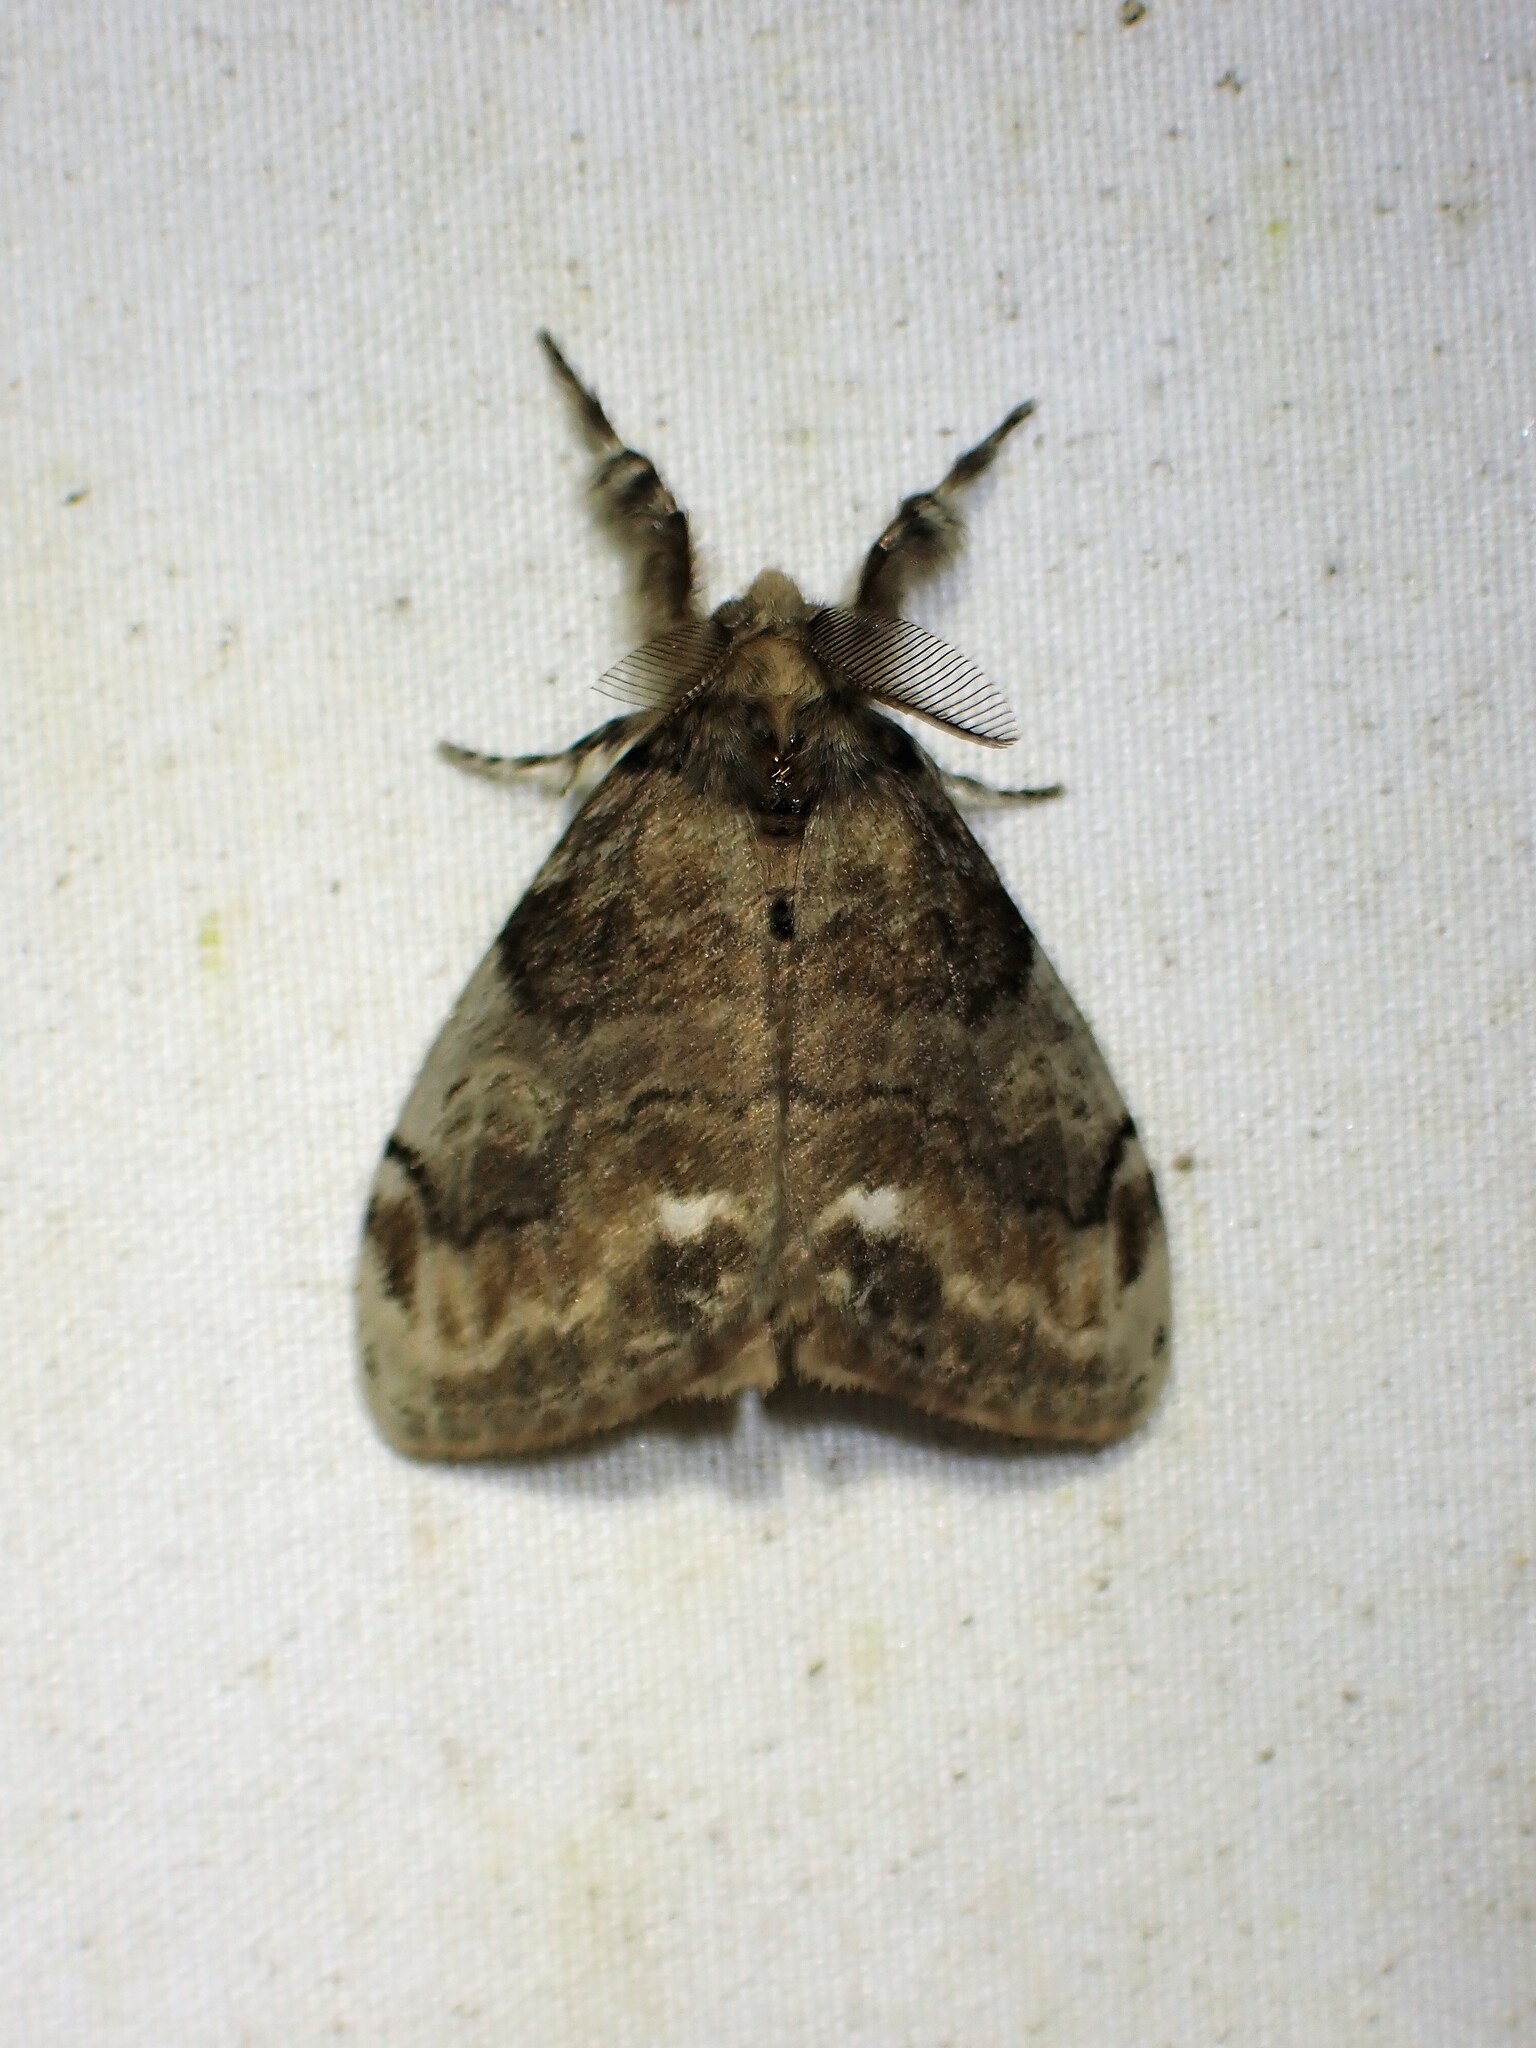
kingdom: Animalia
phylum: Arthropoda
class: Insecta
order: Lepidoptera
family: Erebidae
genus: Orgyia
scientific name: Orgyia leucostigma
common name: White-marked tussock moth
